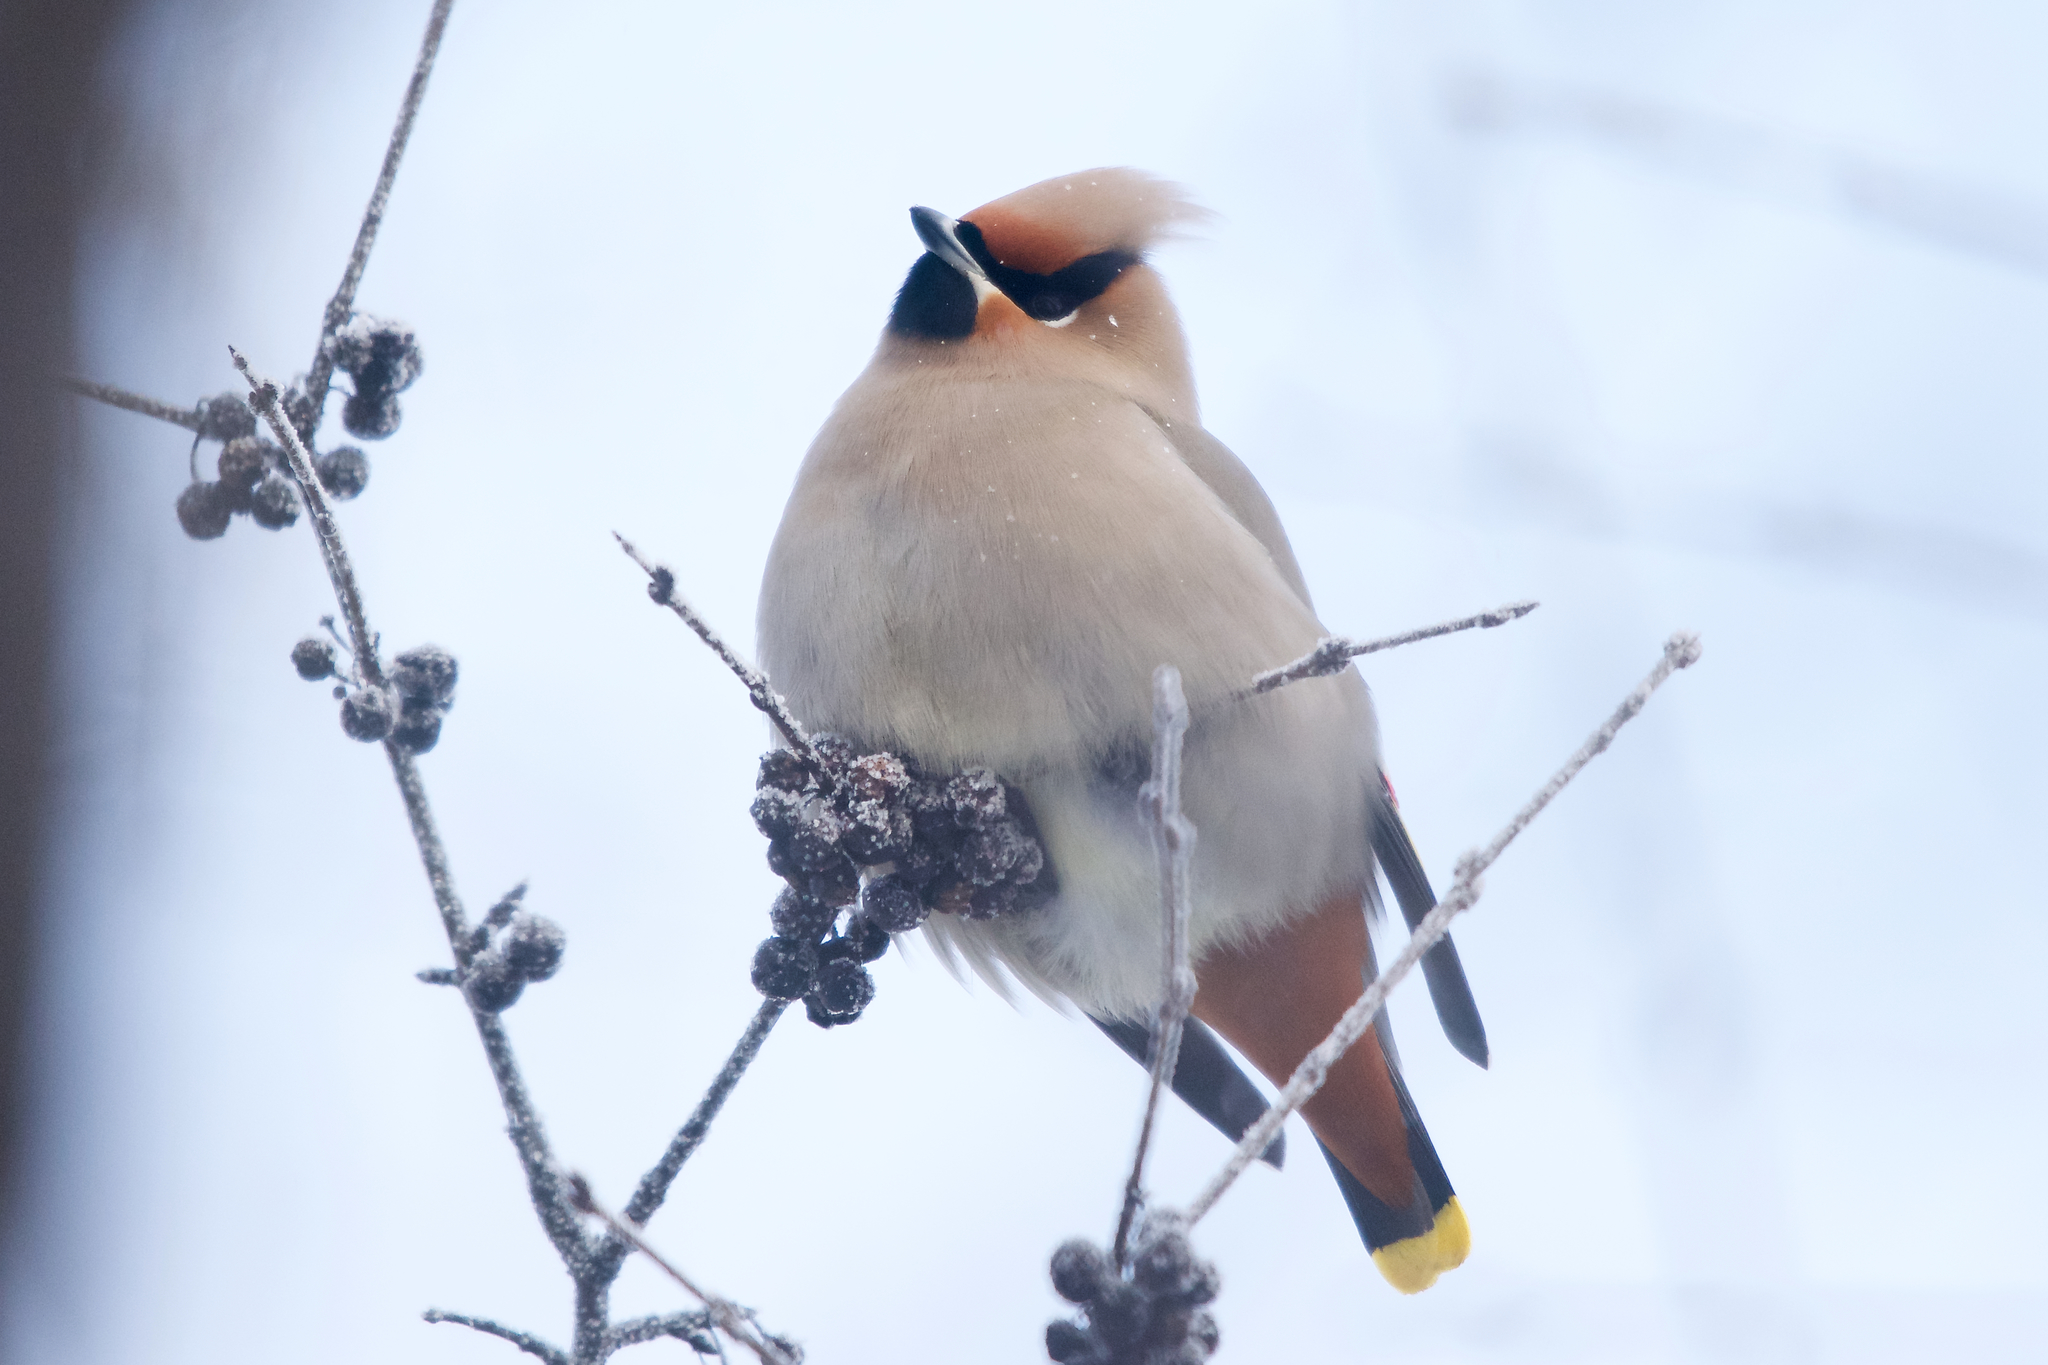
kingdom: Animalia
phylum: Chordata
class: Aves
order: Passeriformes
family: Bombycillidae
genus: Bombycilla
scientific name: Bombycilla garrulus
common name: Bohemian waxwing
